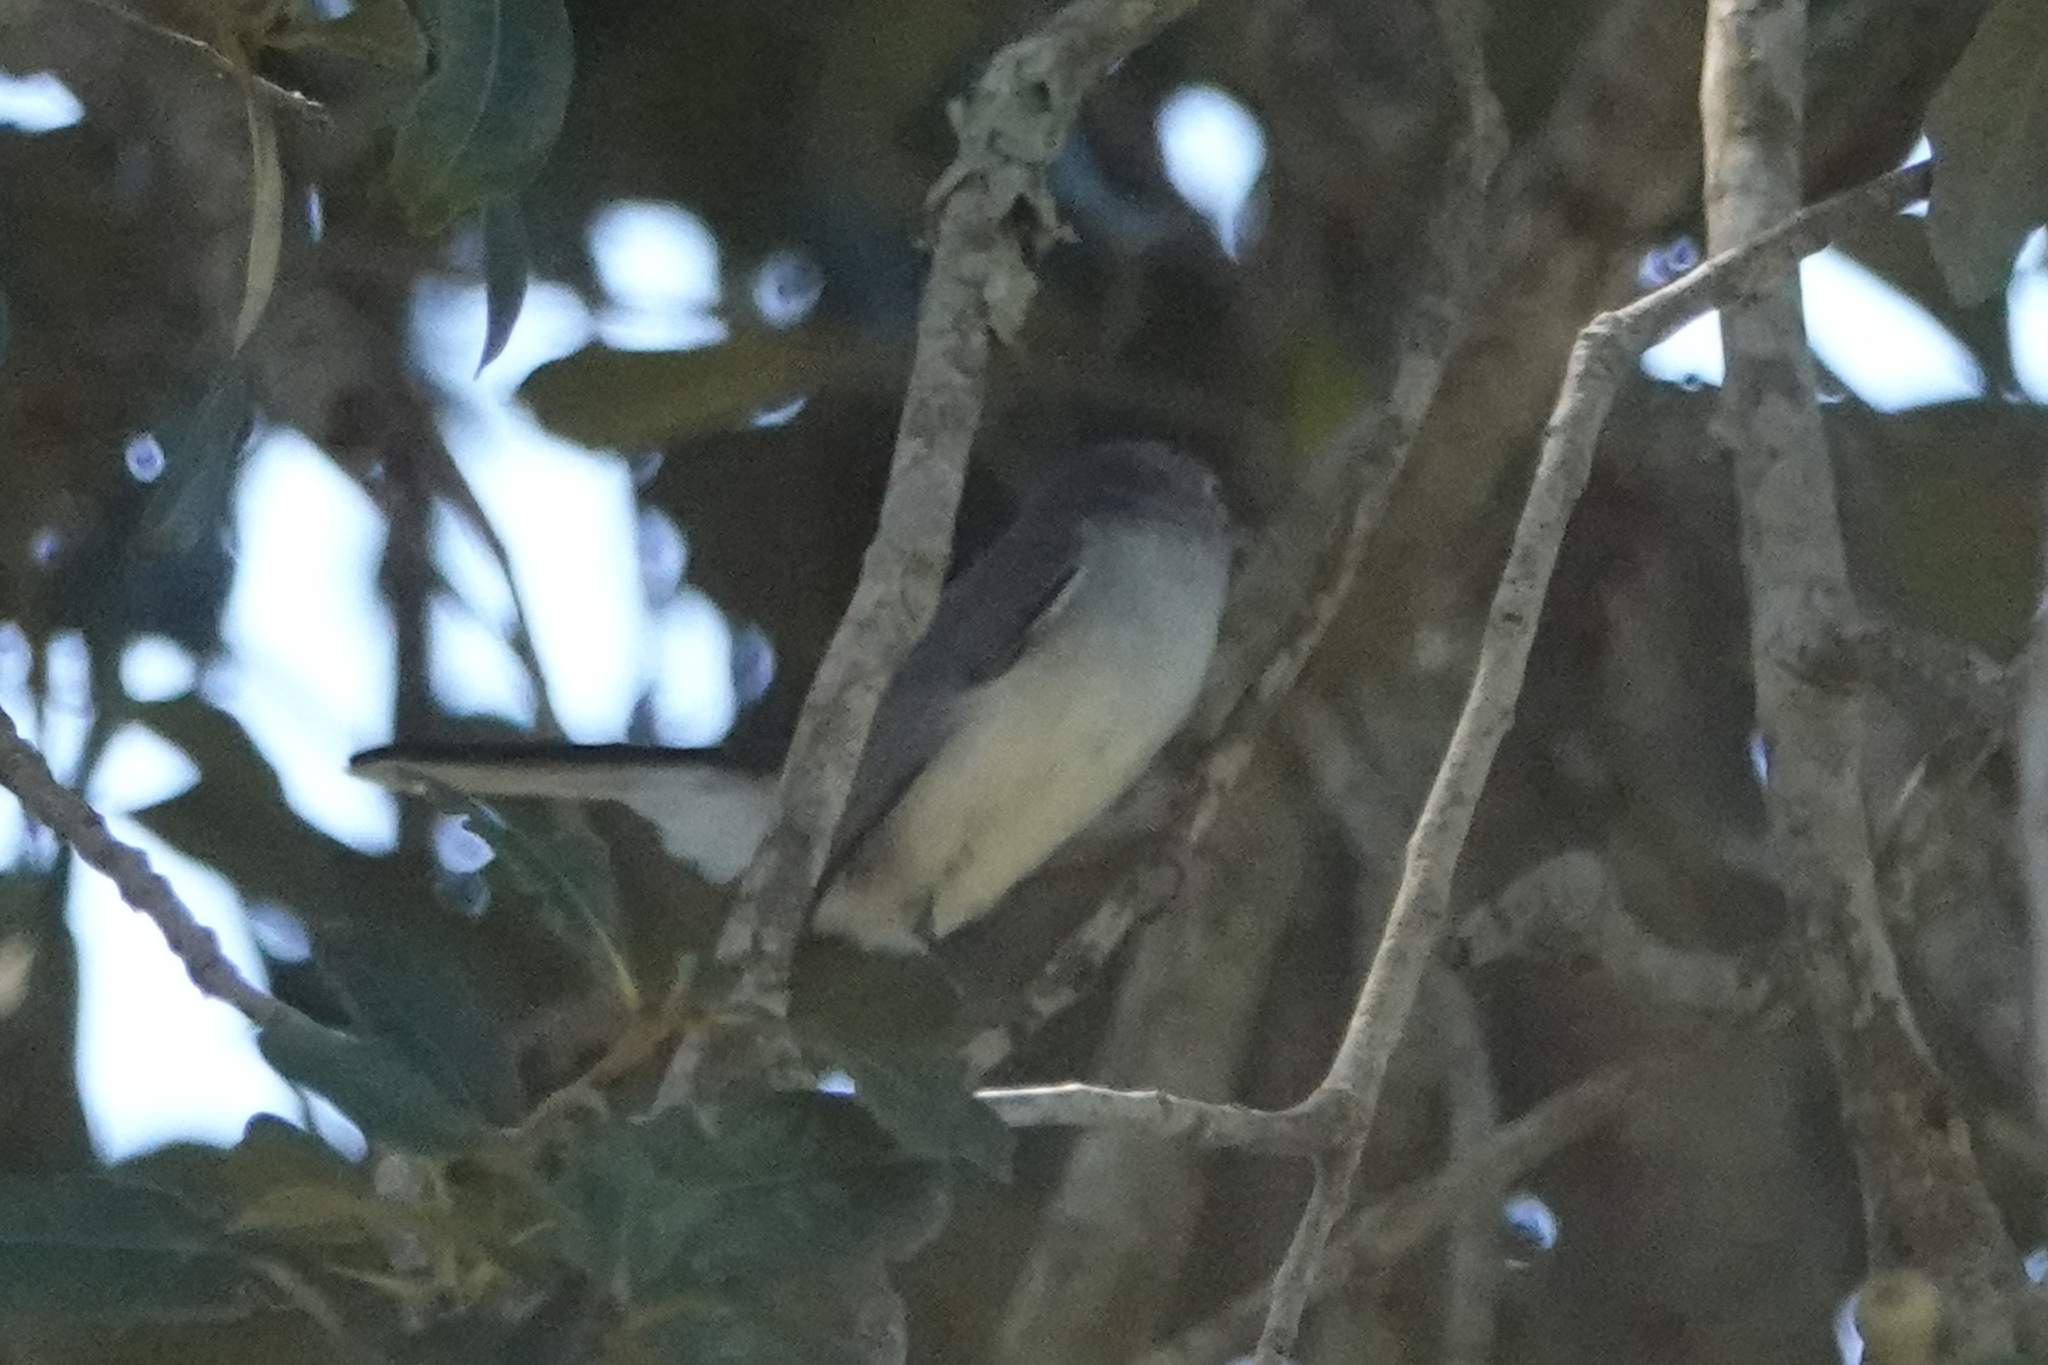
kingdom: Animalia
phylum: Chordata
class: Aves
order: Passeriformes
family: Polioptilidae
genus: Polioptila
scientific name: Polioptila caerulea
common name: Blue-gray gnatcatcher
